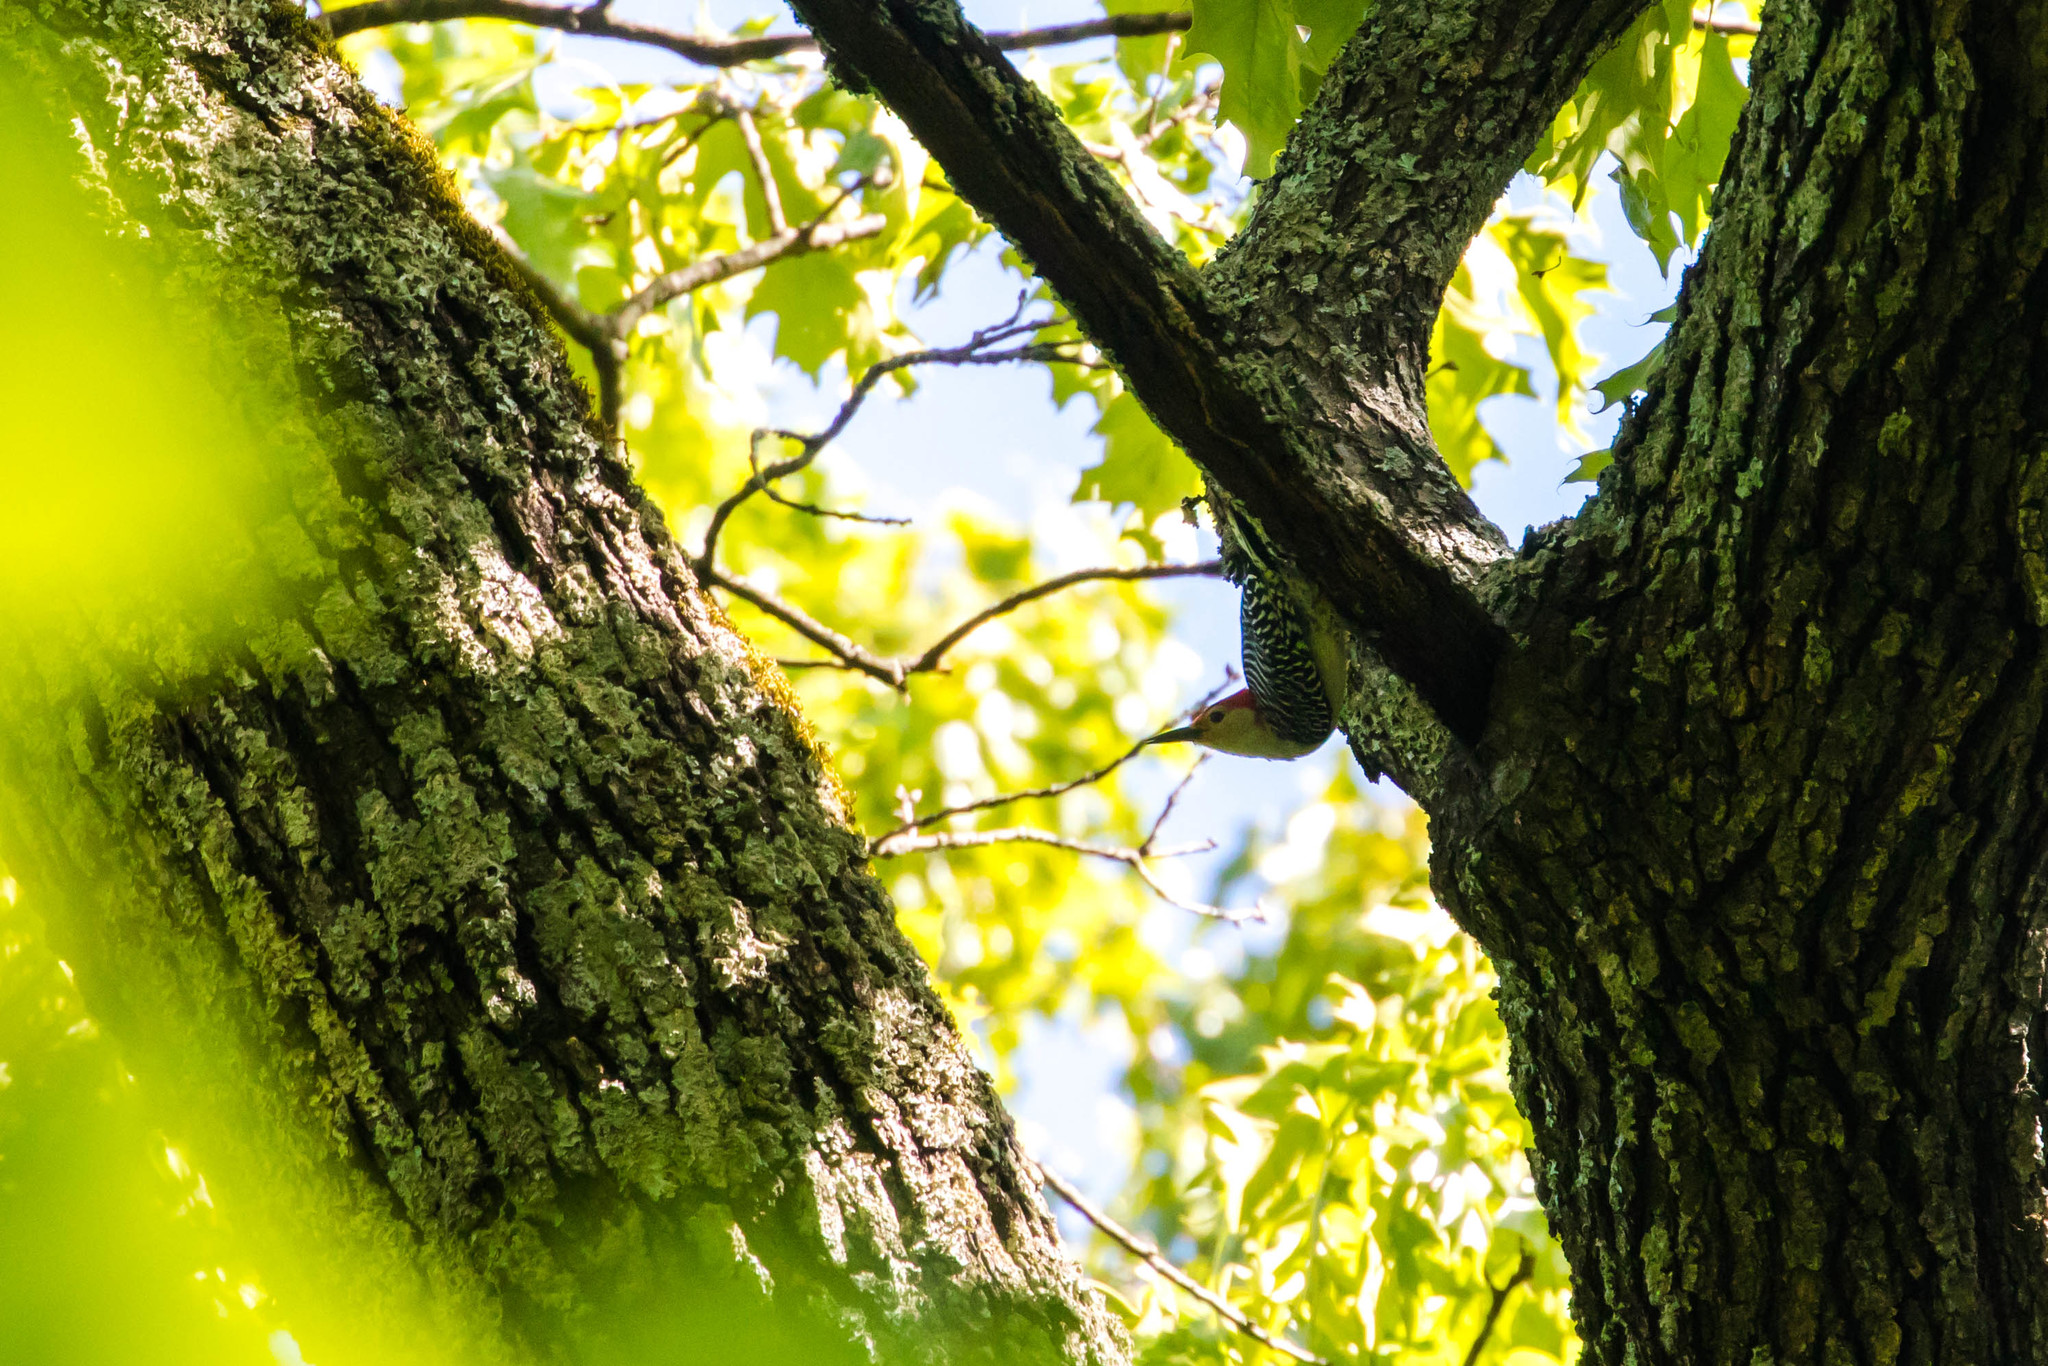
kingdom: Animalia
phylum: Chordata
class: Aves
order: Piciformes
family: Picidae
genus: Melanerpes
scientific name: Melanerpes carolinus
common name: Red-bellied woodpecker
